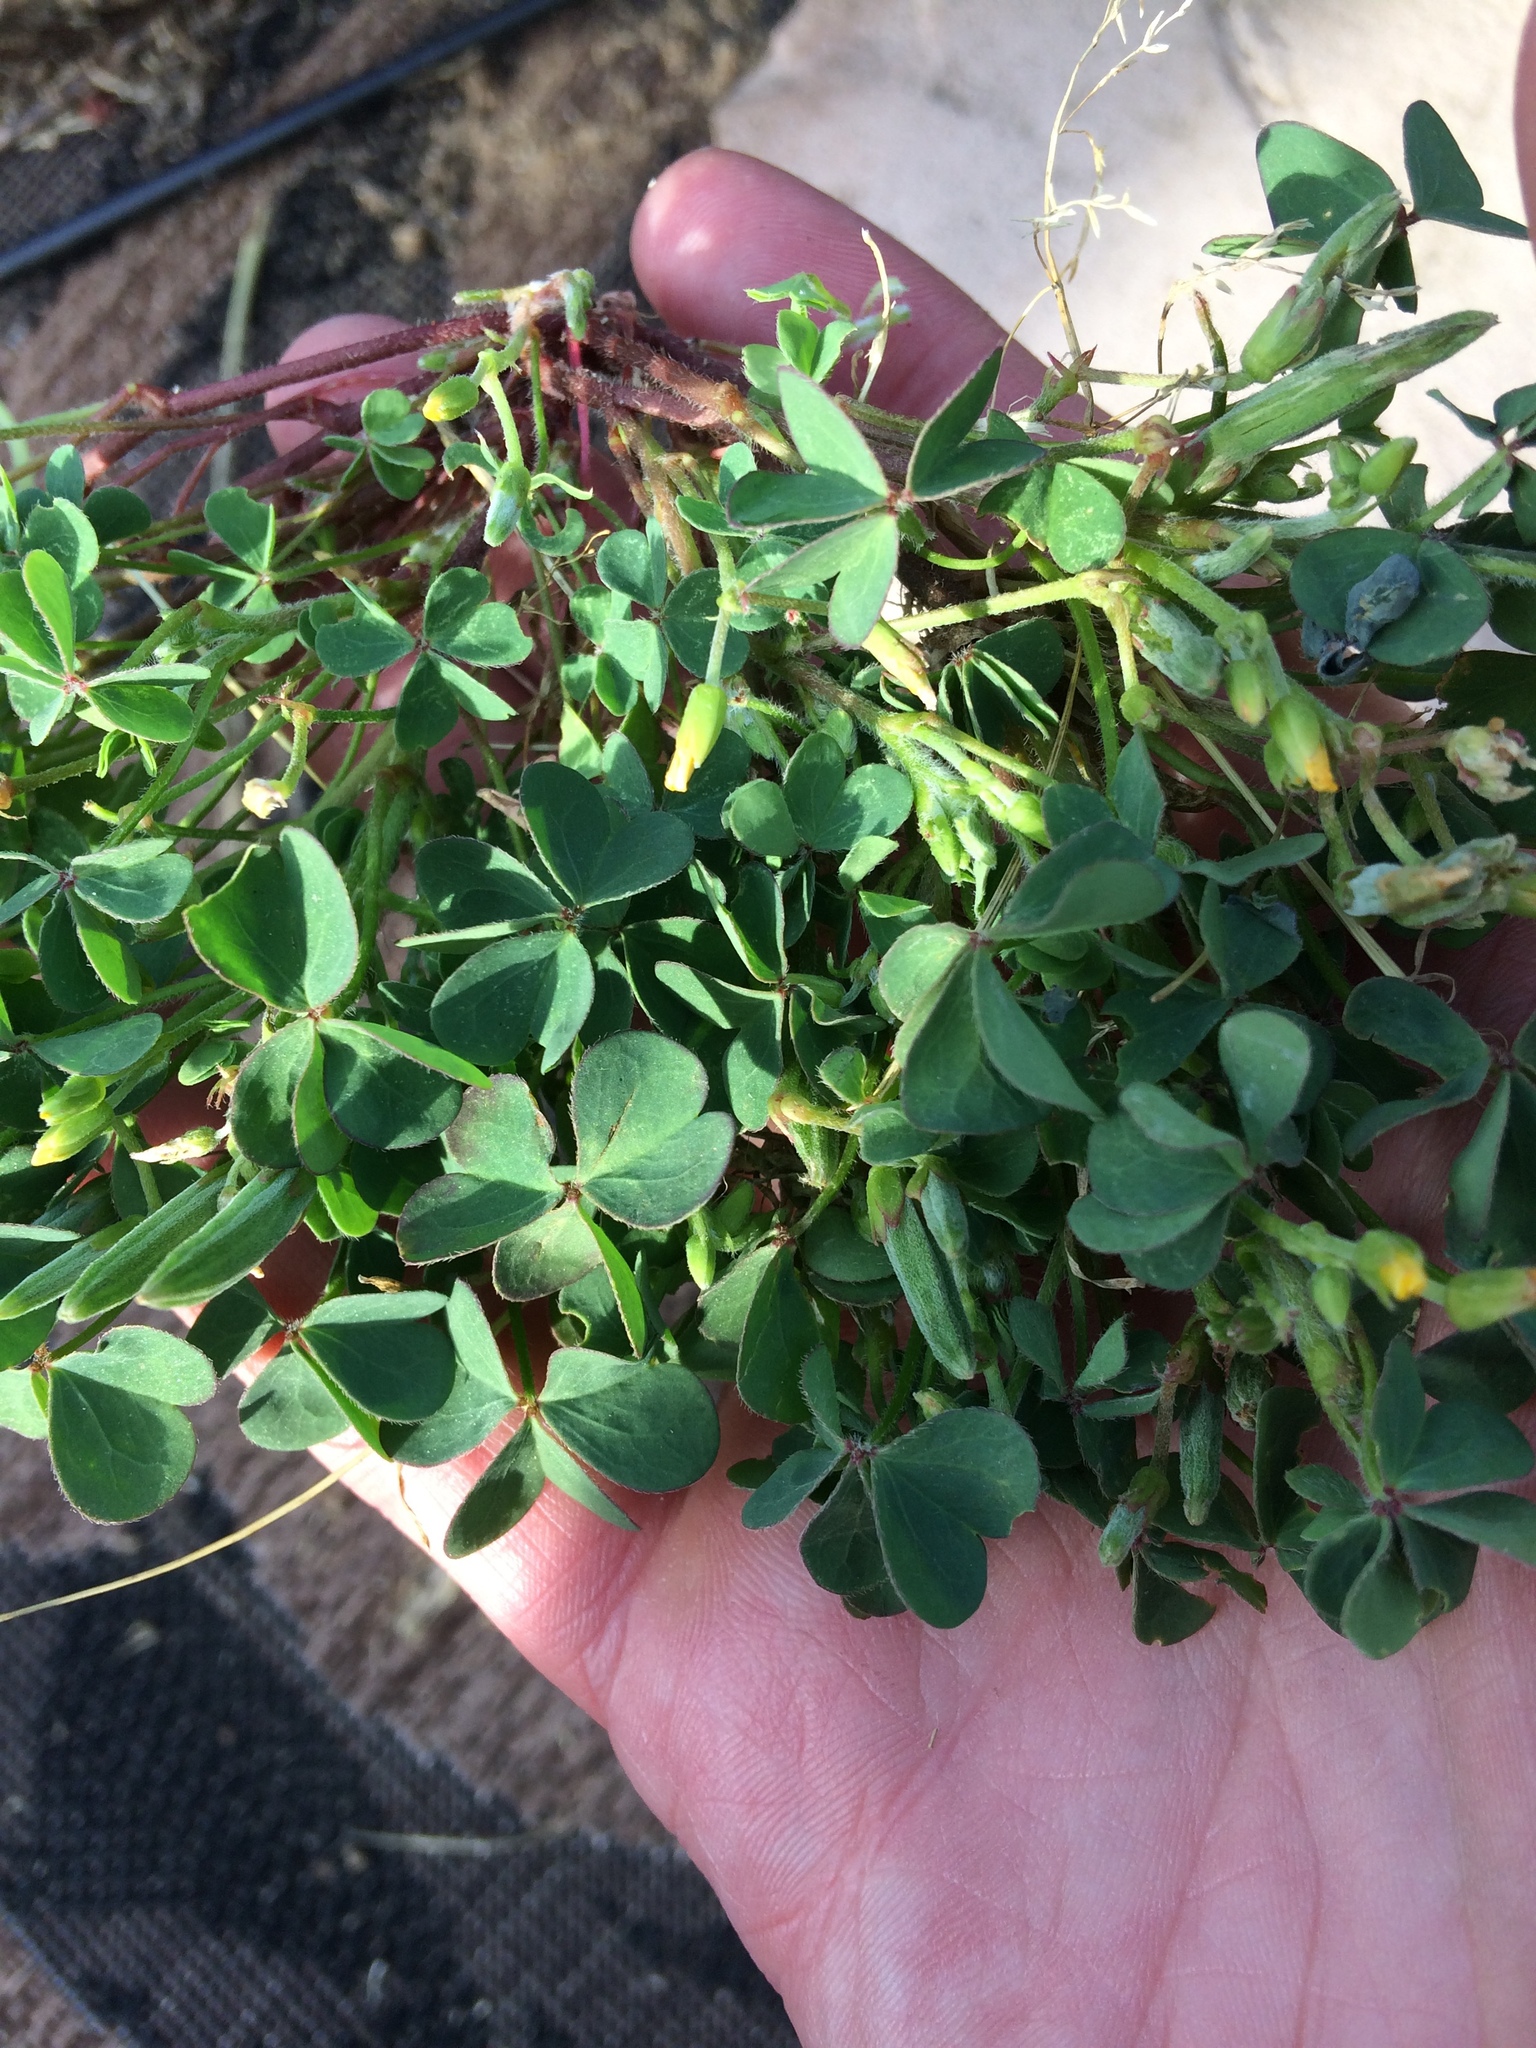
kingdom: Plantae
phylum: Tracheophyta
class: Magnoliopsida
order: Oxalidales
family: Oxalidaceae
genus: Oxalis
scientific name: Oxalis corniculata
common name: Procumbent yellow-sorrel
